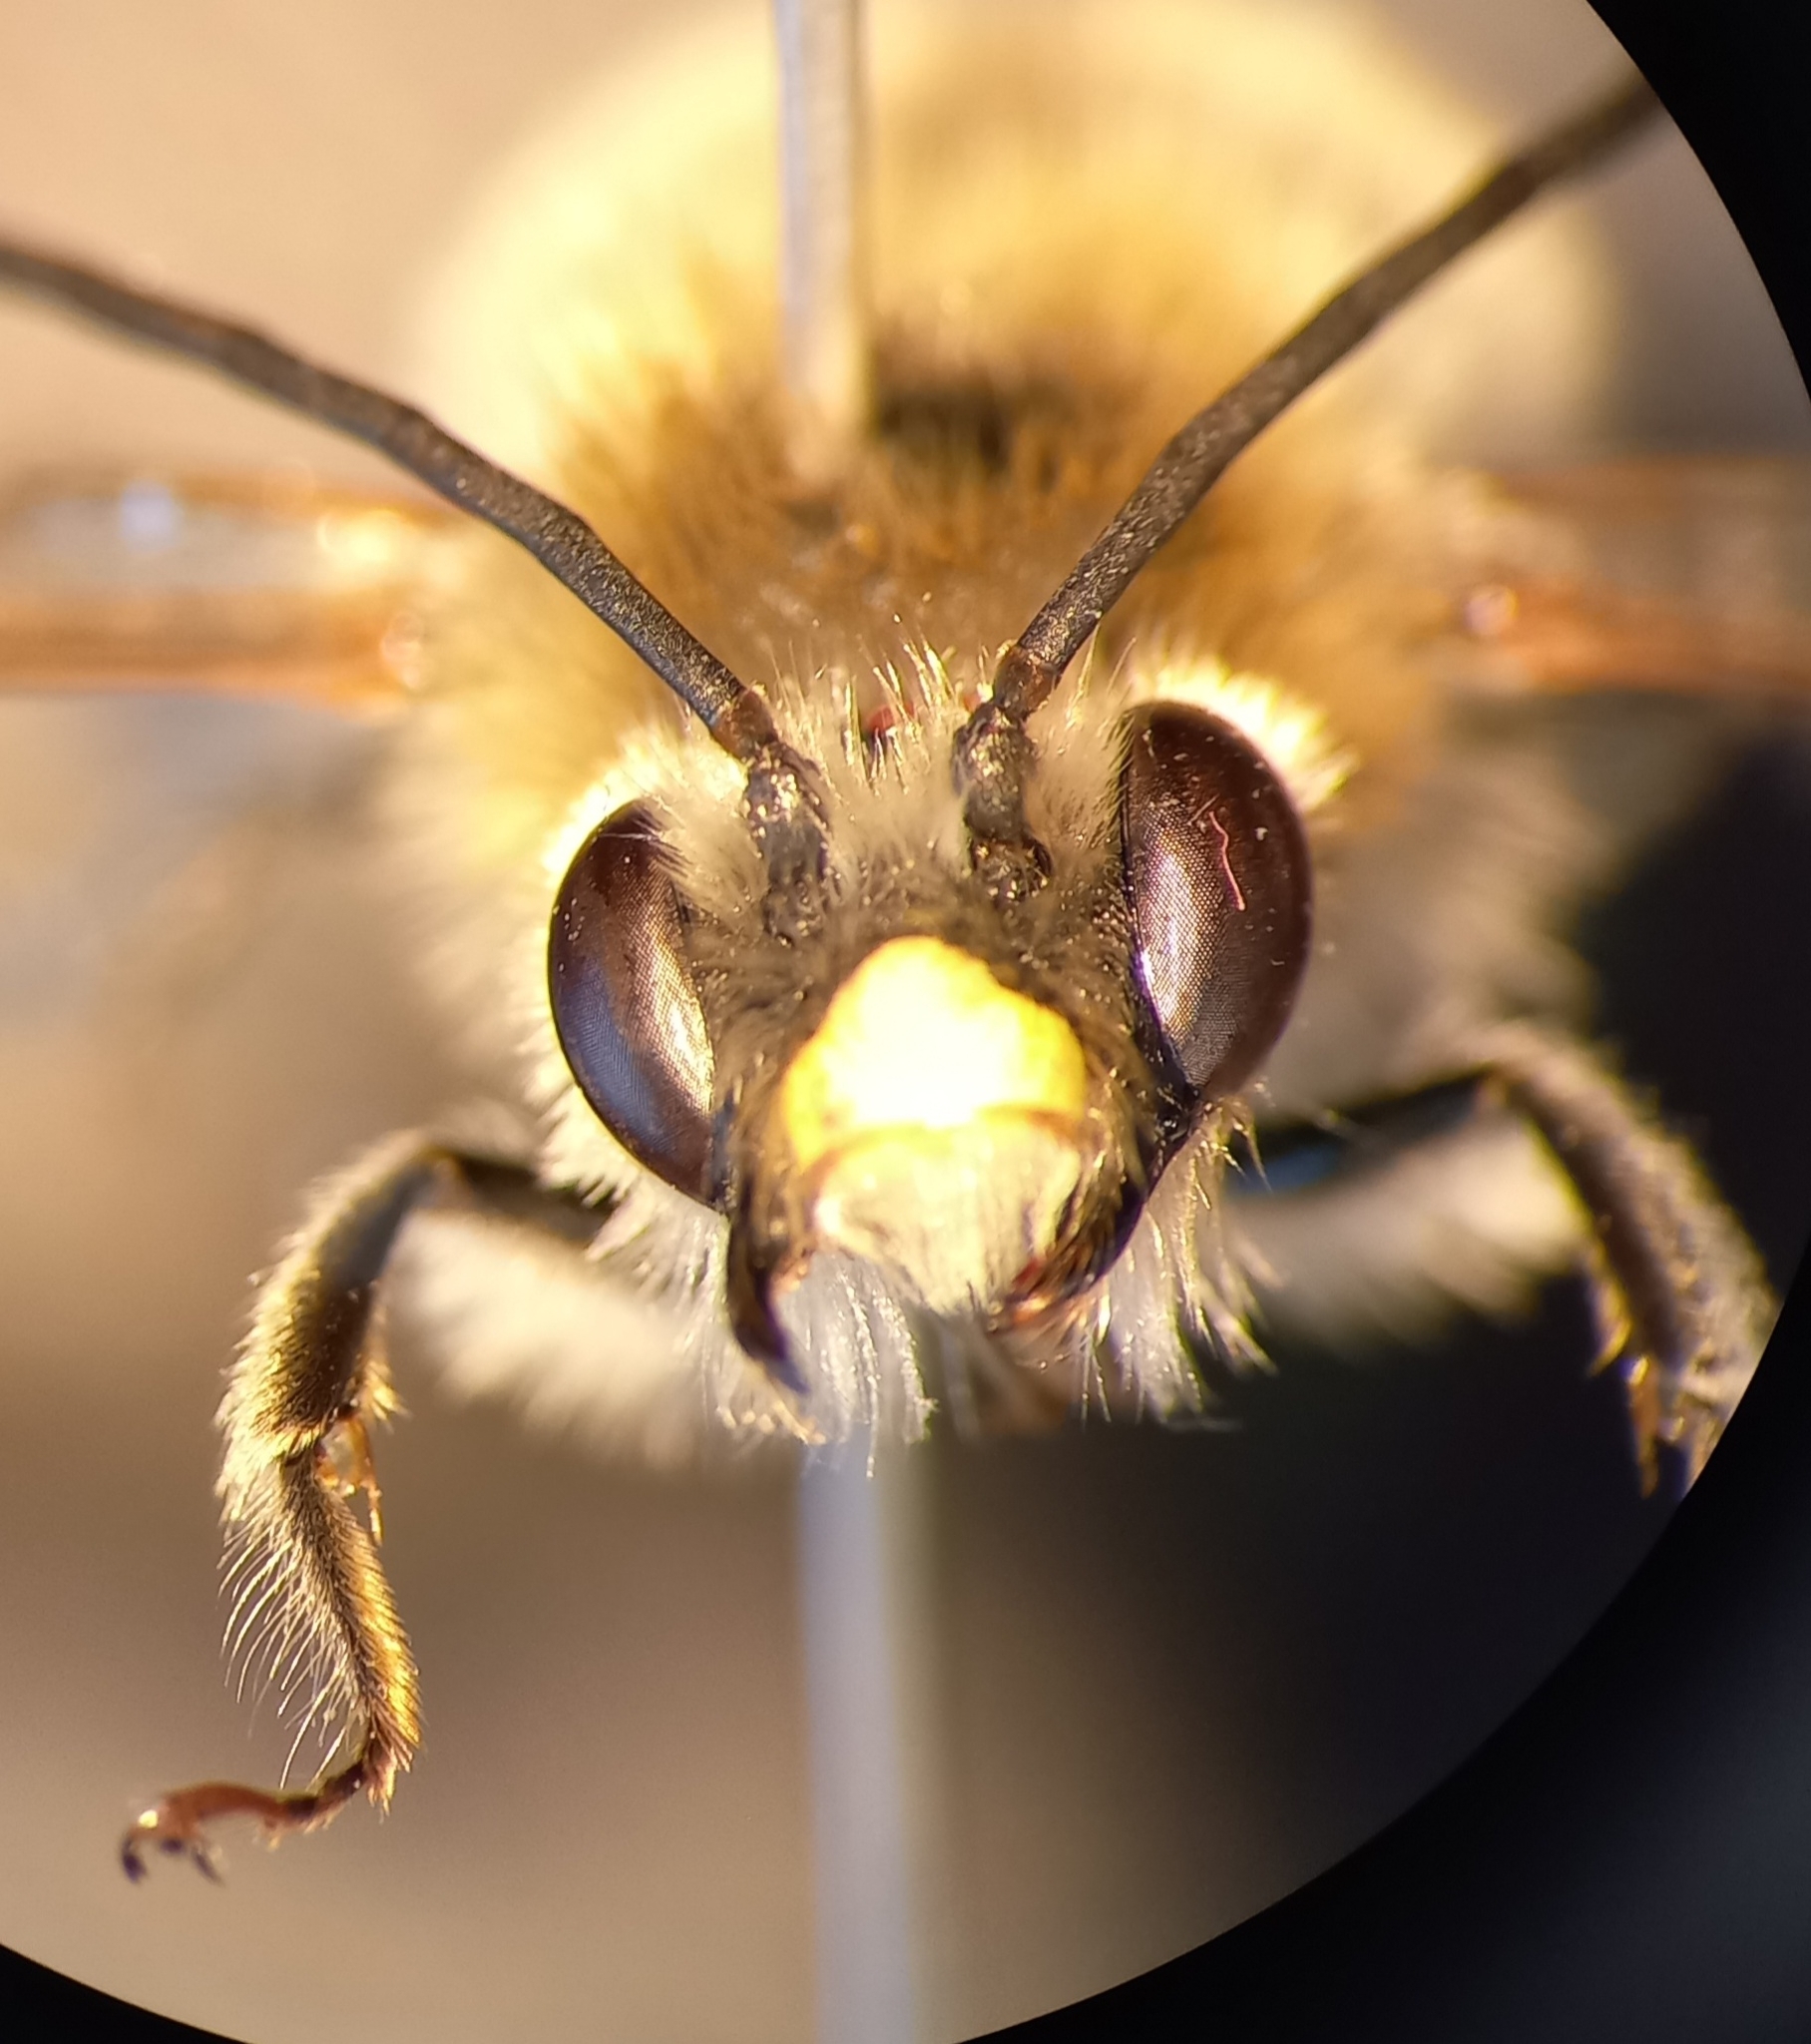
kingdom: Animalia
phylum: Arthropoda
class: Insecta
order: Hymenoptera
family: Apidae
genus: Eucera
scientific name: Eucera nigrescens
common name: Tuberculate long-horned bee
